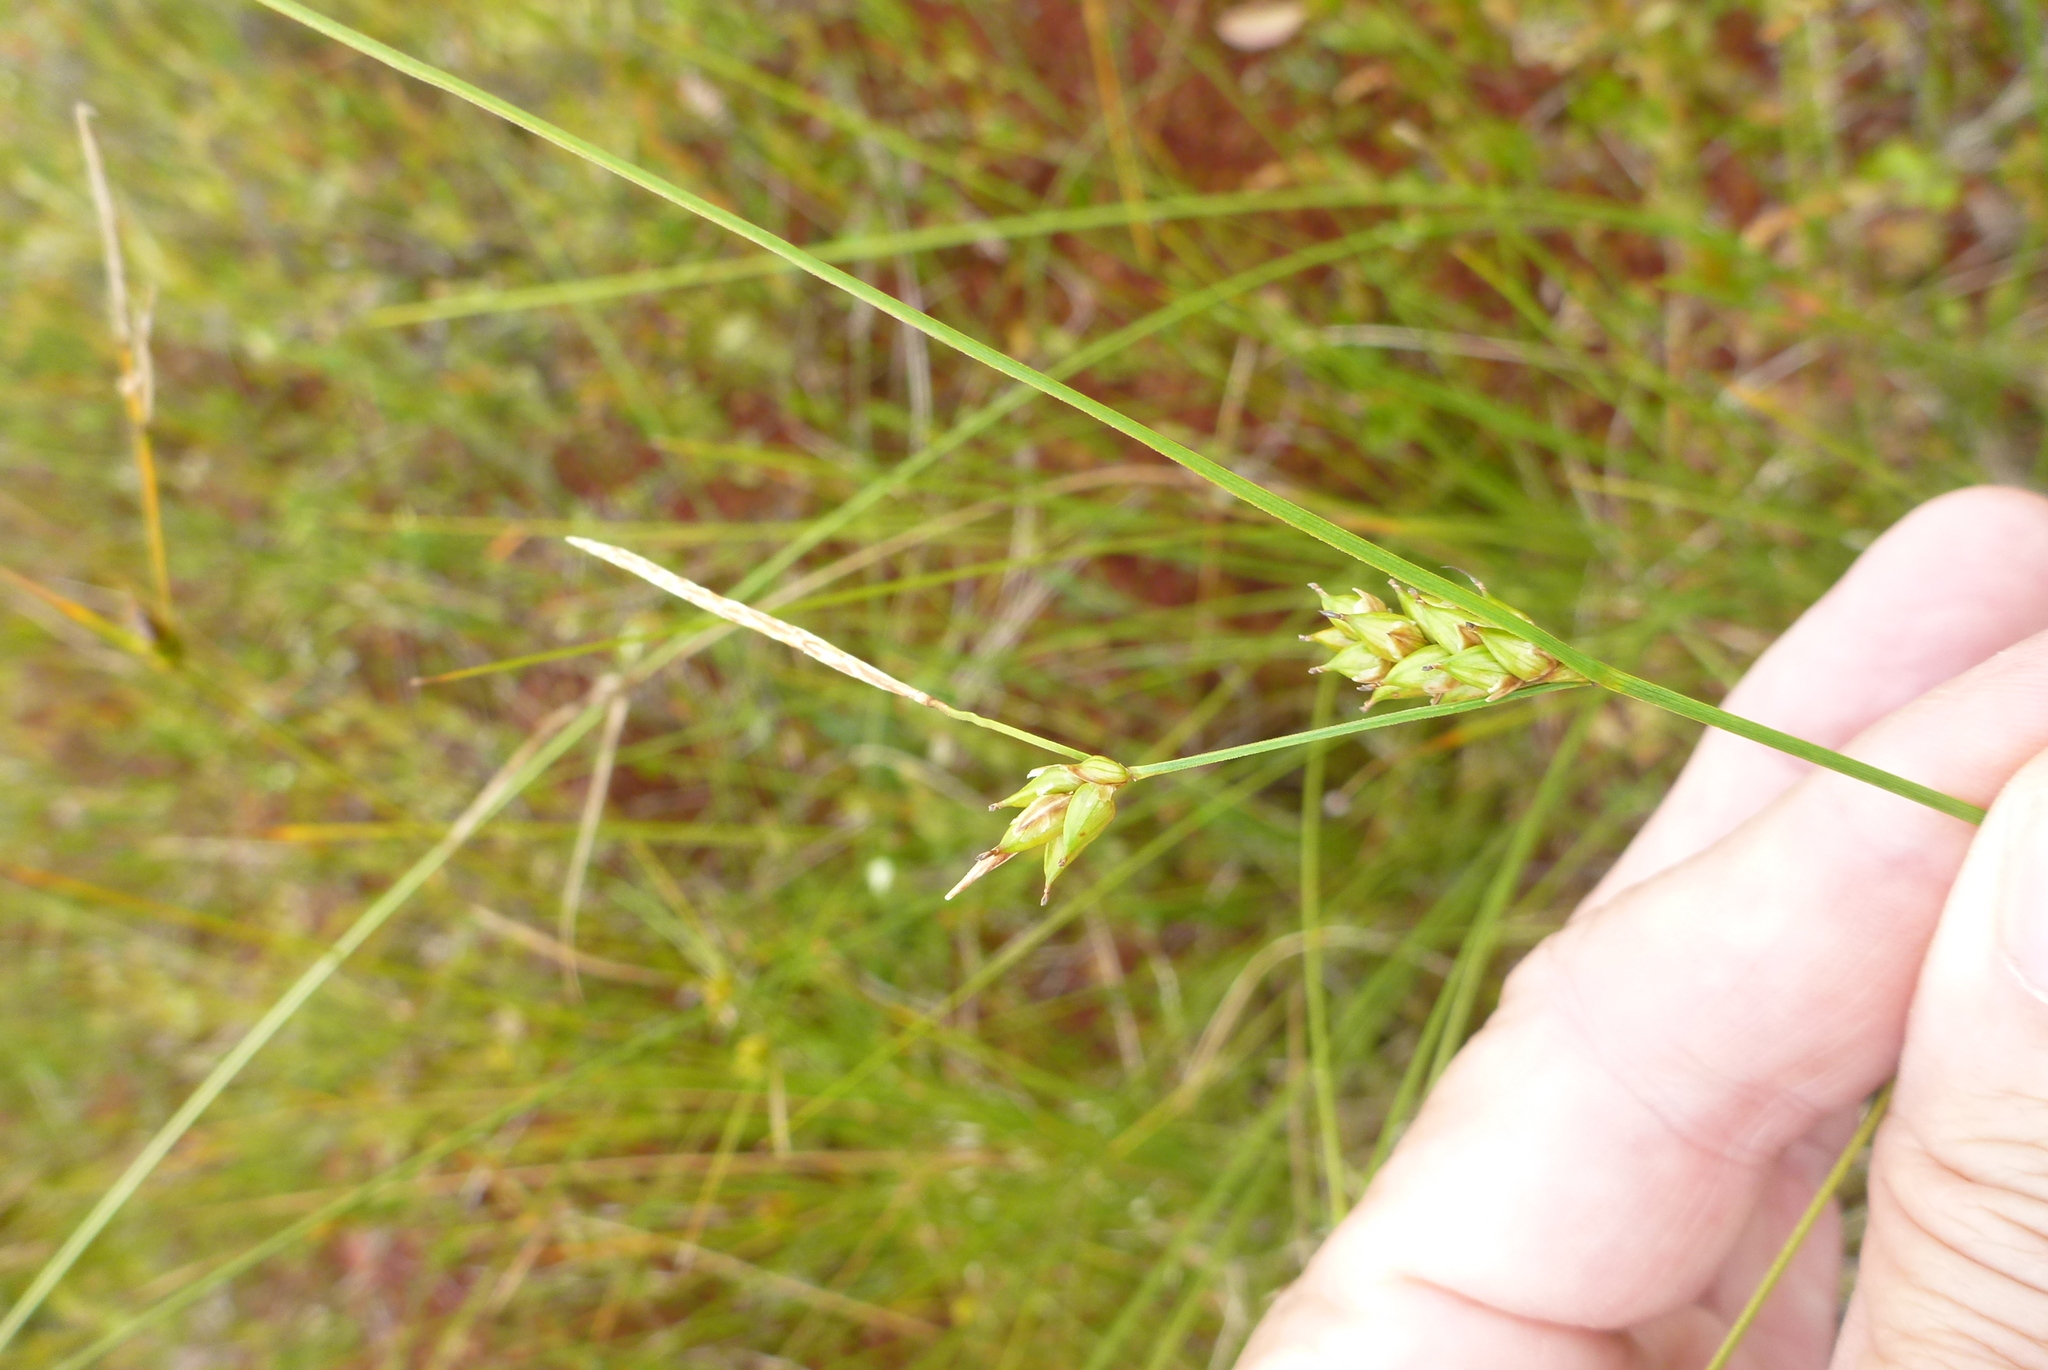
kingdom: Plantae
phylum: Tracheophyta
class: Liliopsida
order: Poales
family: Cyperaceae
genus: Carex
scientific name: Carex oligosperma
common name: Few-seed sedge
